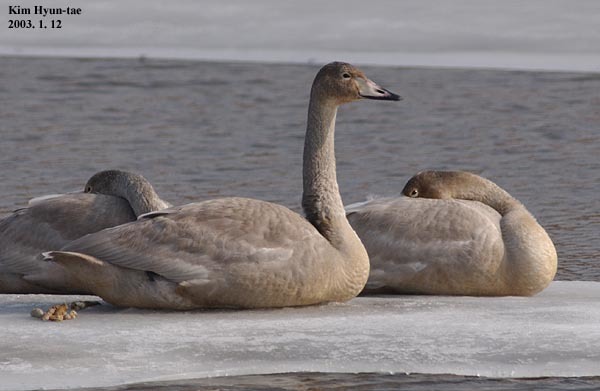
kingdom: Animalia
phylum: Chordata
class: Aves
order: Anseriformes
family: Anatidae
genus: Cygnus
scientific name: Cygnus cygnus
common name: Whooper swan
